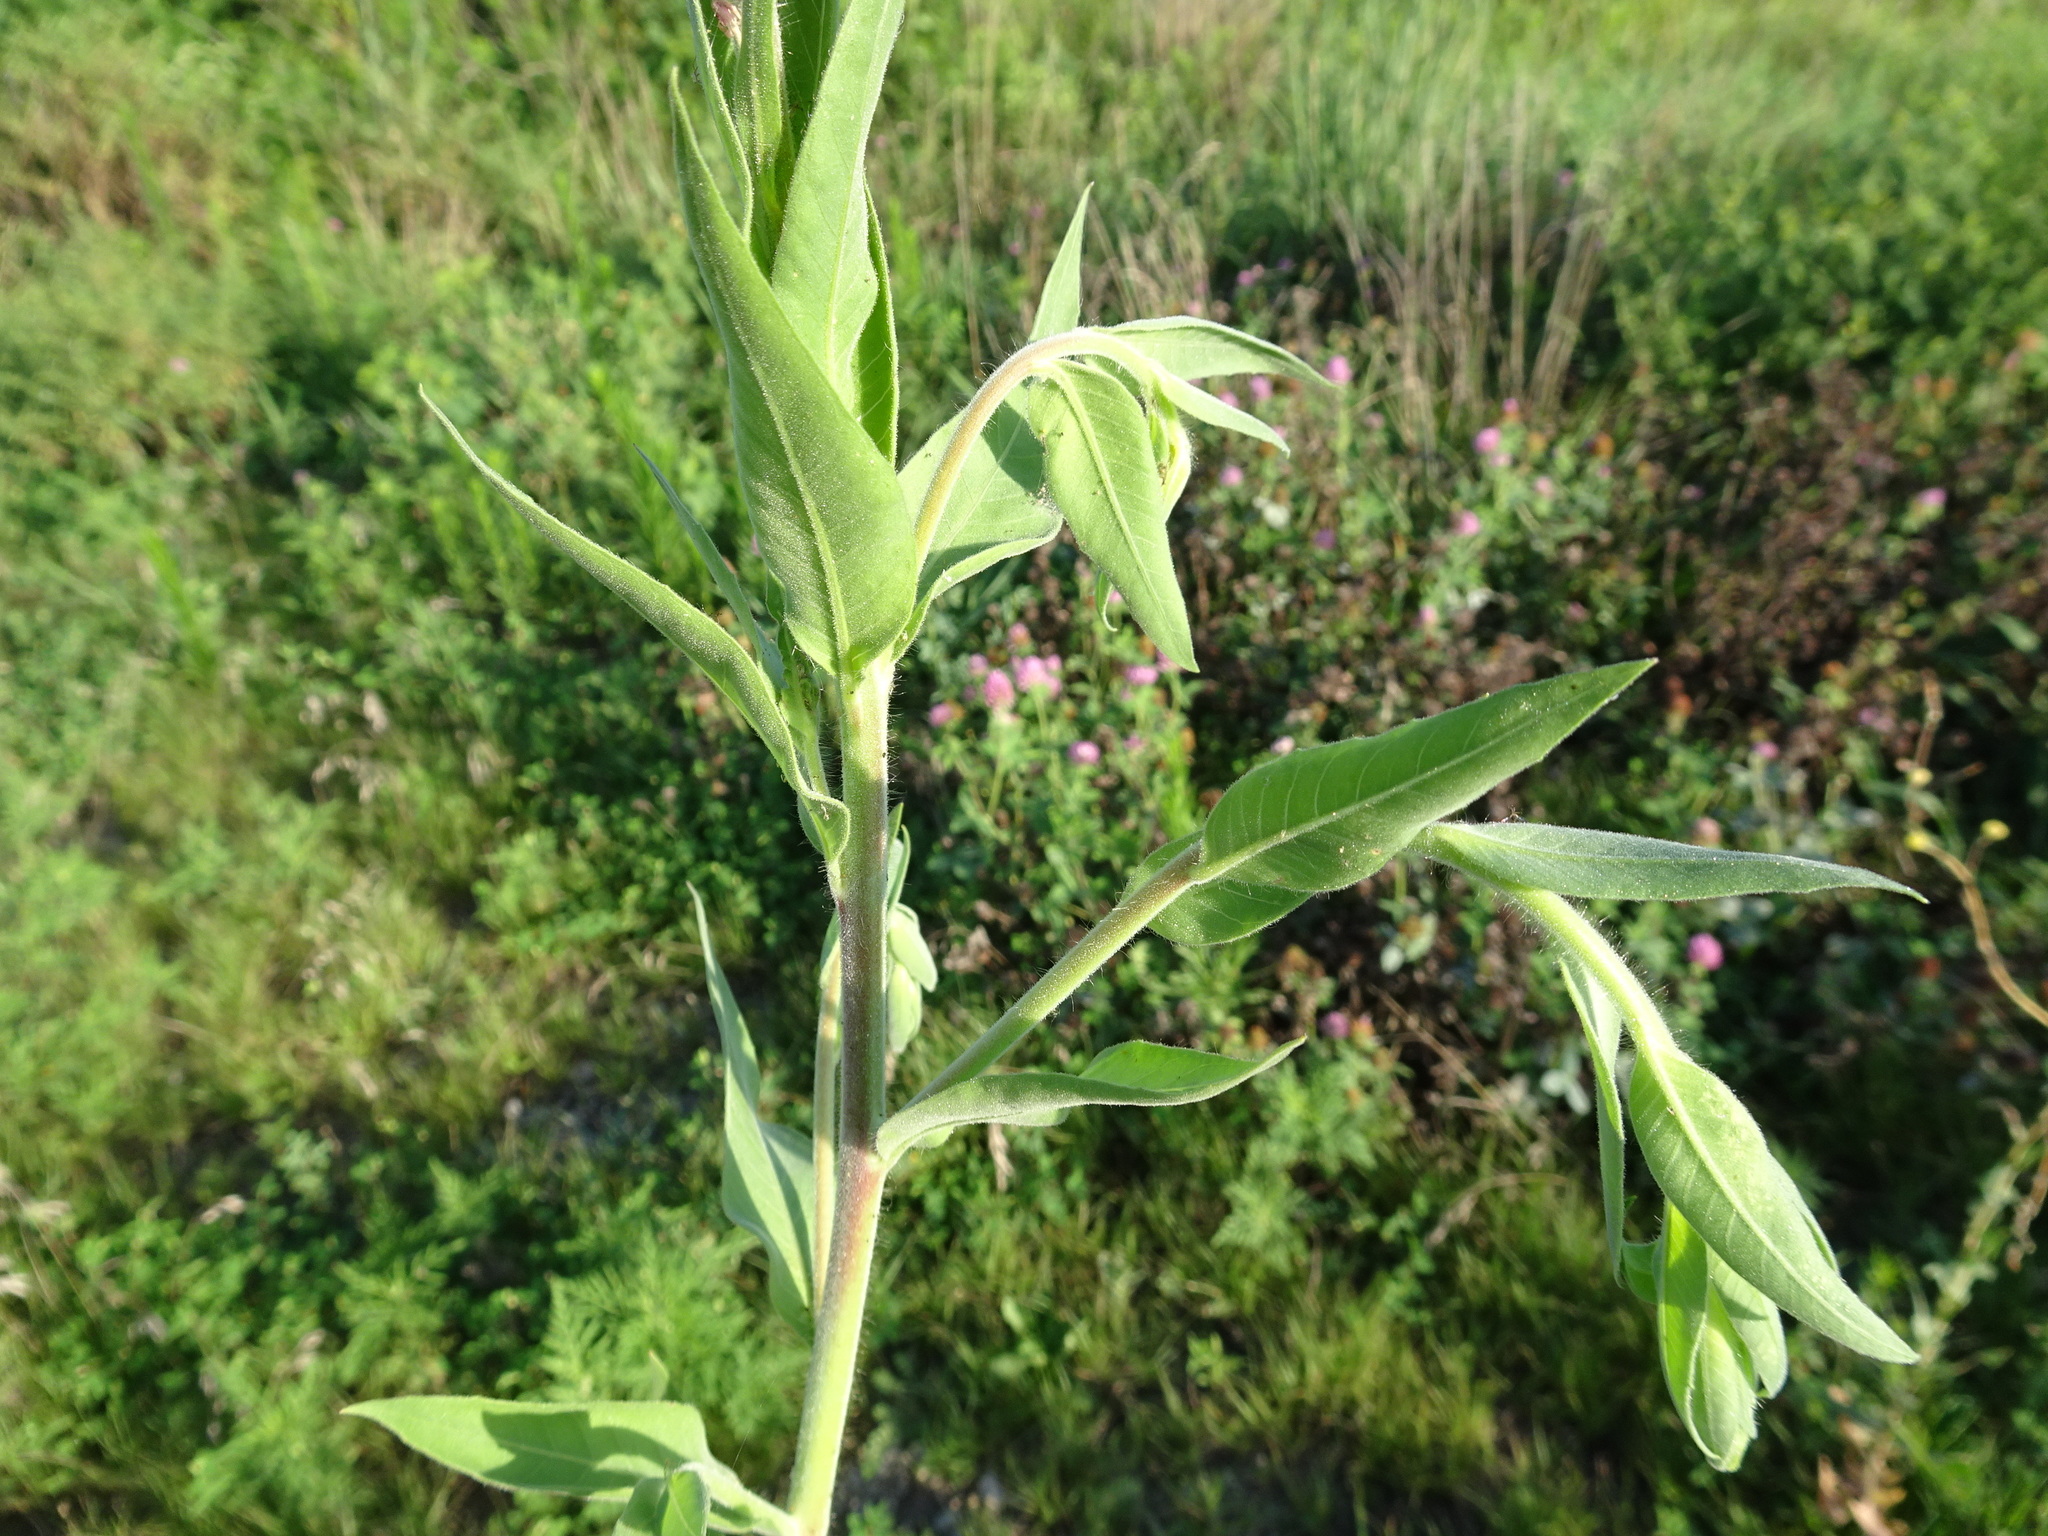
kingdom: Plantae
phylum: Tracheophyta
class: Magnoliopsida
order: Myrtales
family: Onagraceae
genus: Oenothera
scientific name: Oenothera curtiflora
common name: Velvetweed
